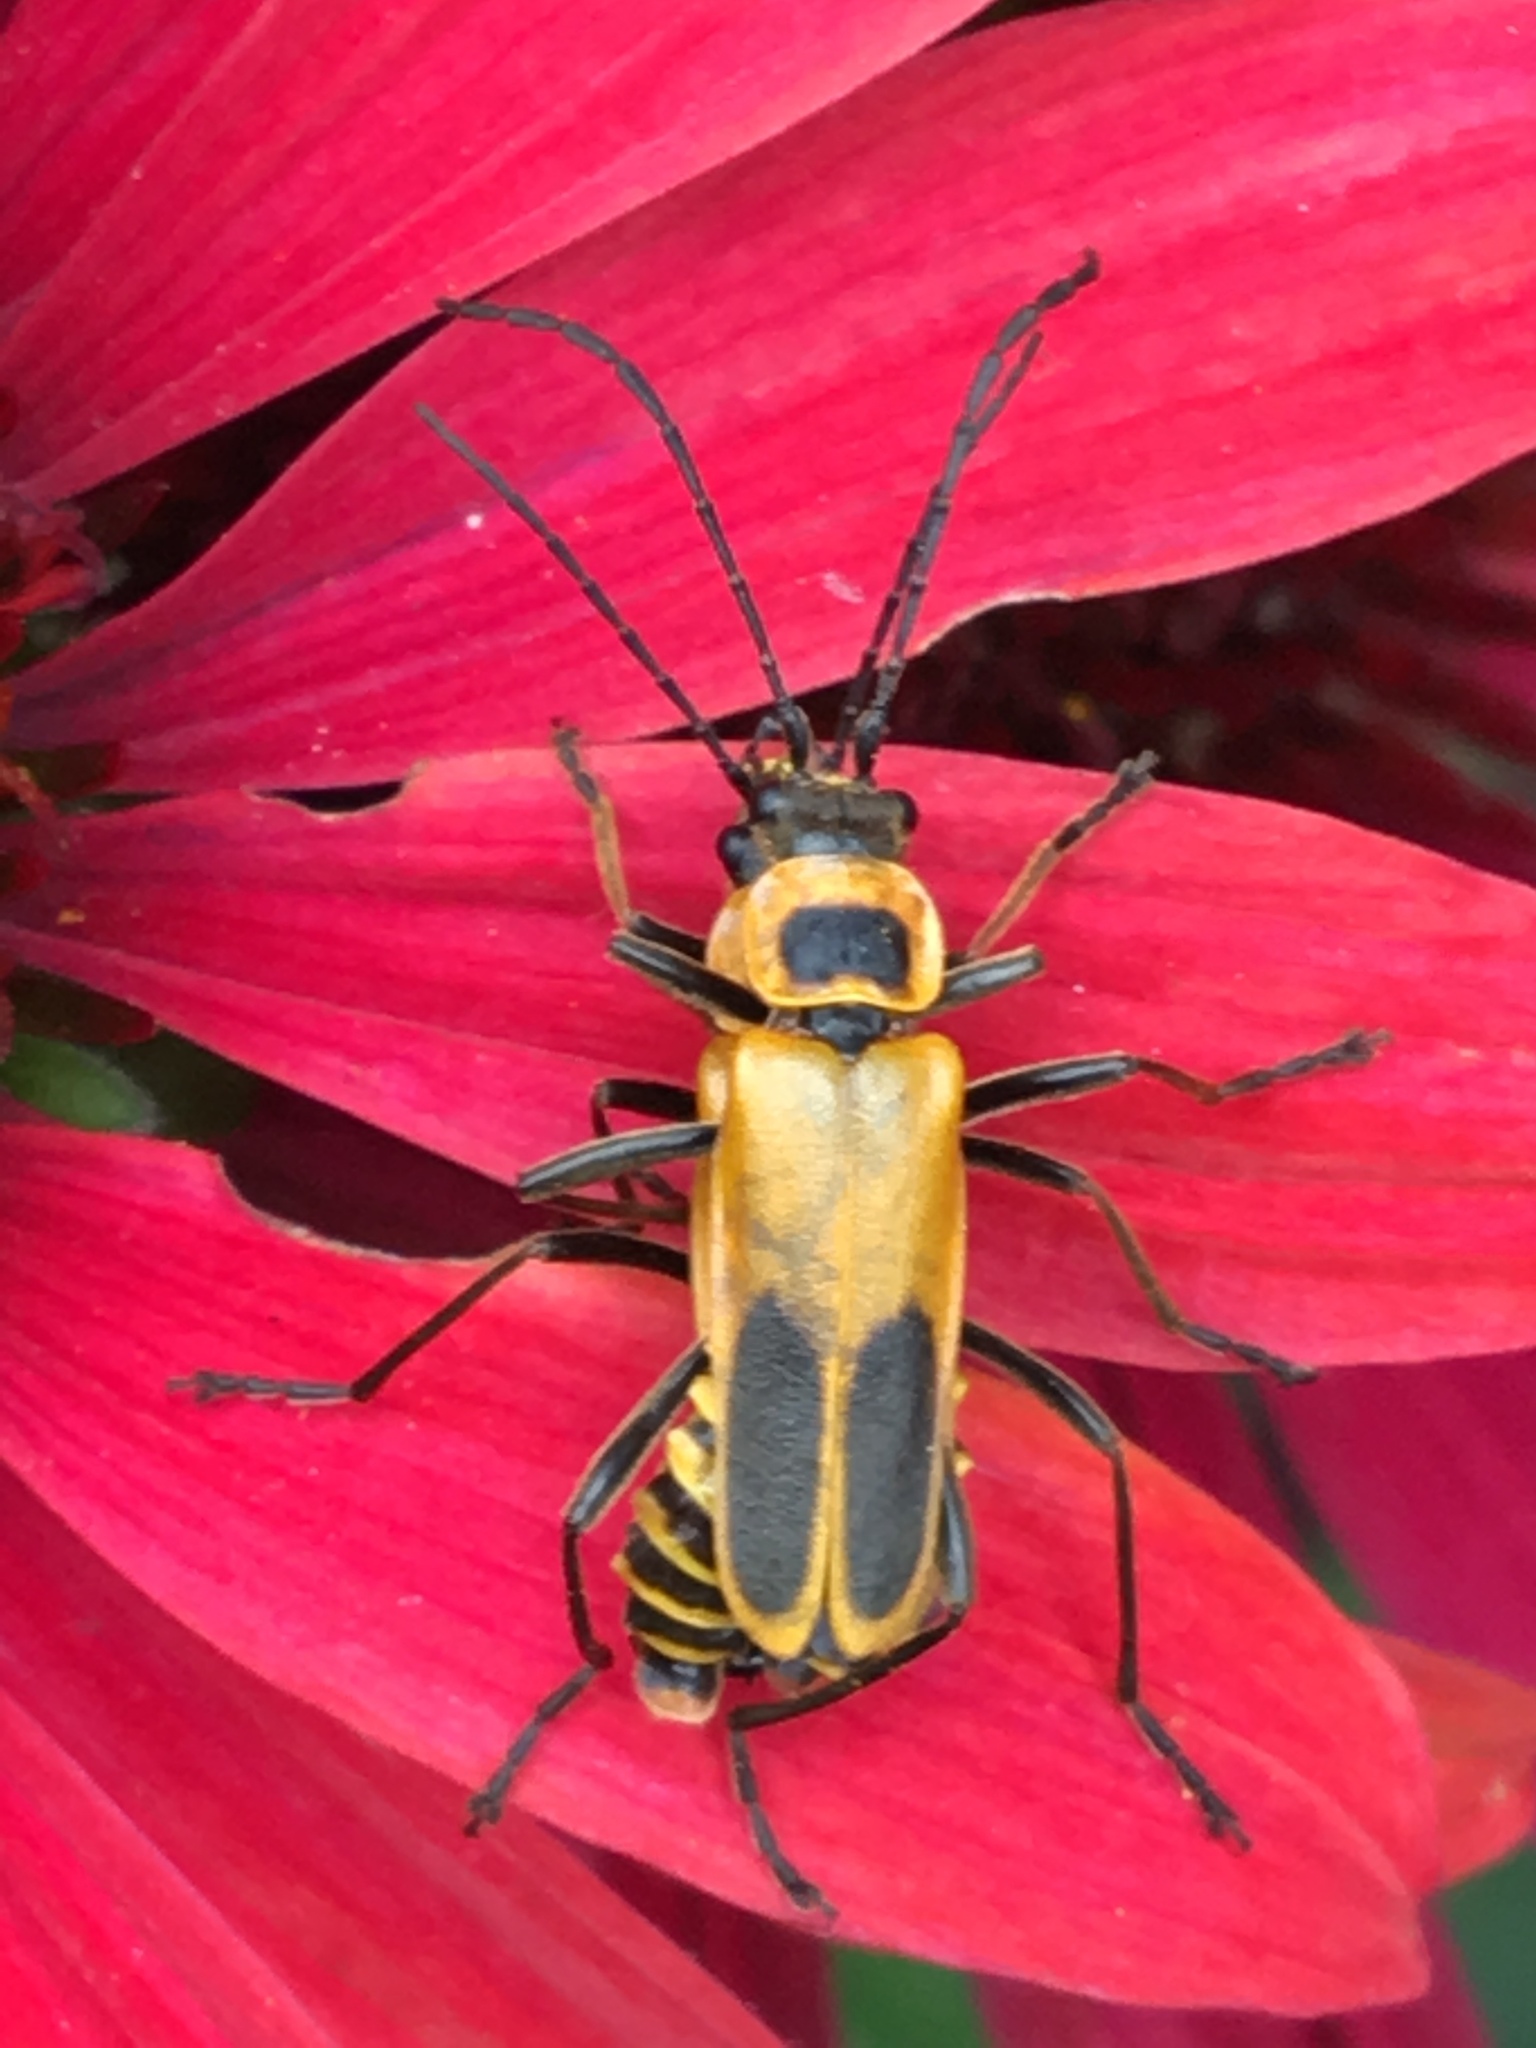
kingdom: Animalia
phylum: Arthropoda
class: Insecta
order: Coleoptera
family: Cantharidae
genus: Chauliognathus
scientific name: Chauliognathus pensylvanicus
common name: Goldenrod soldier beetle
